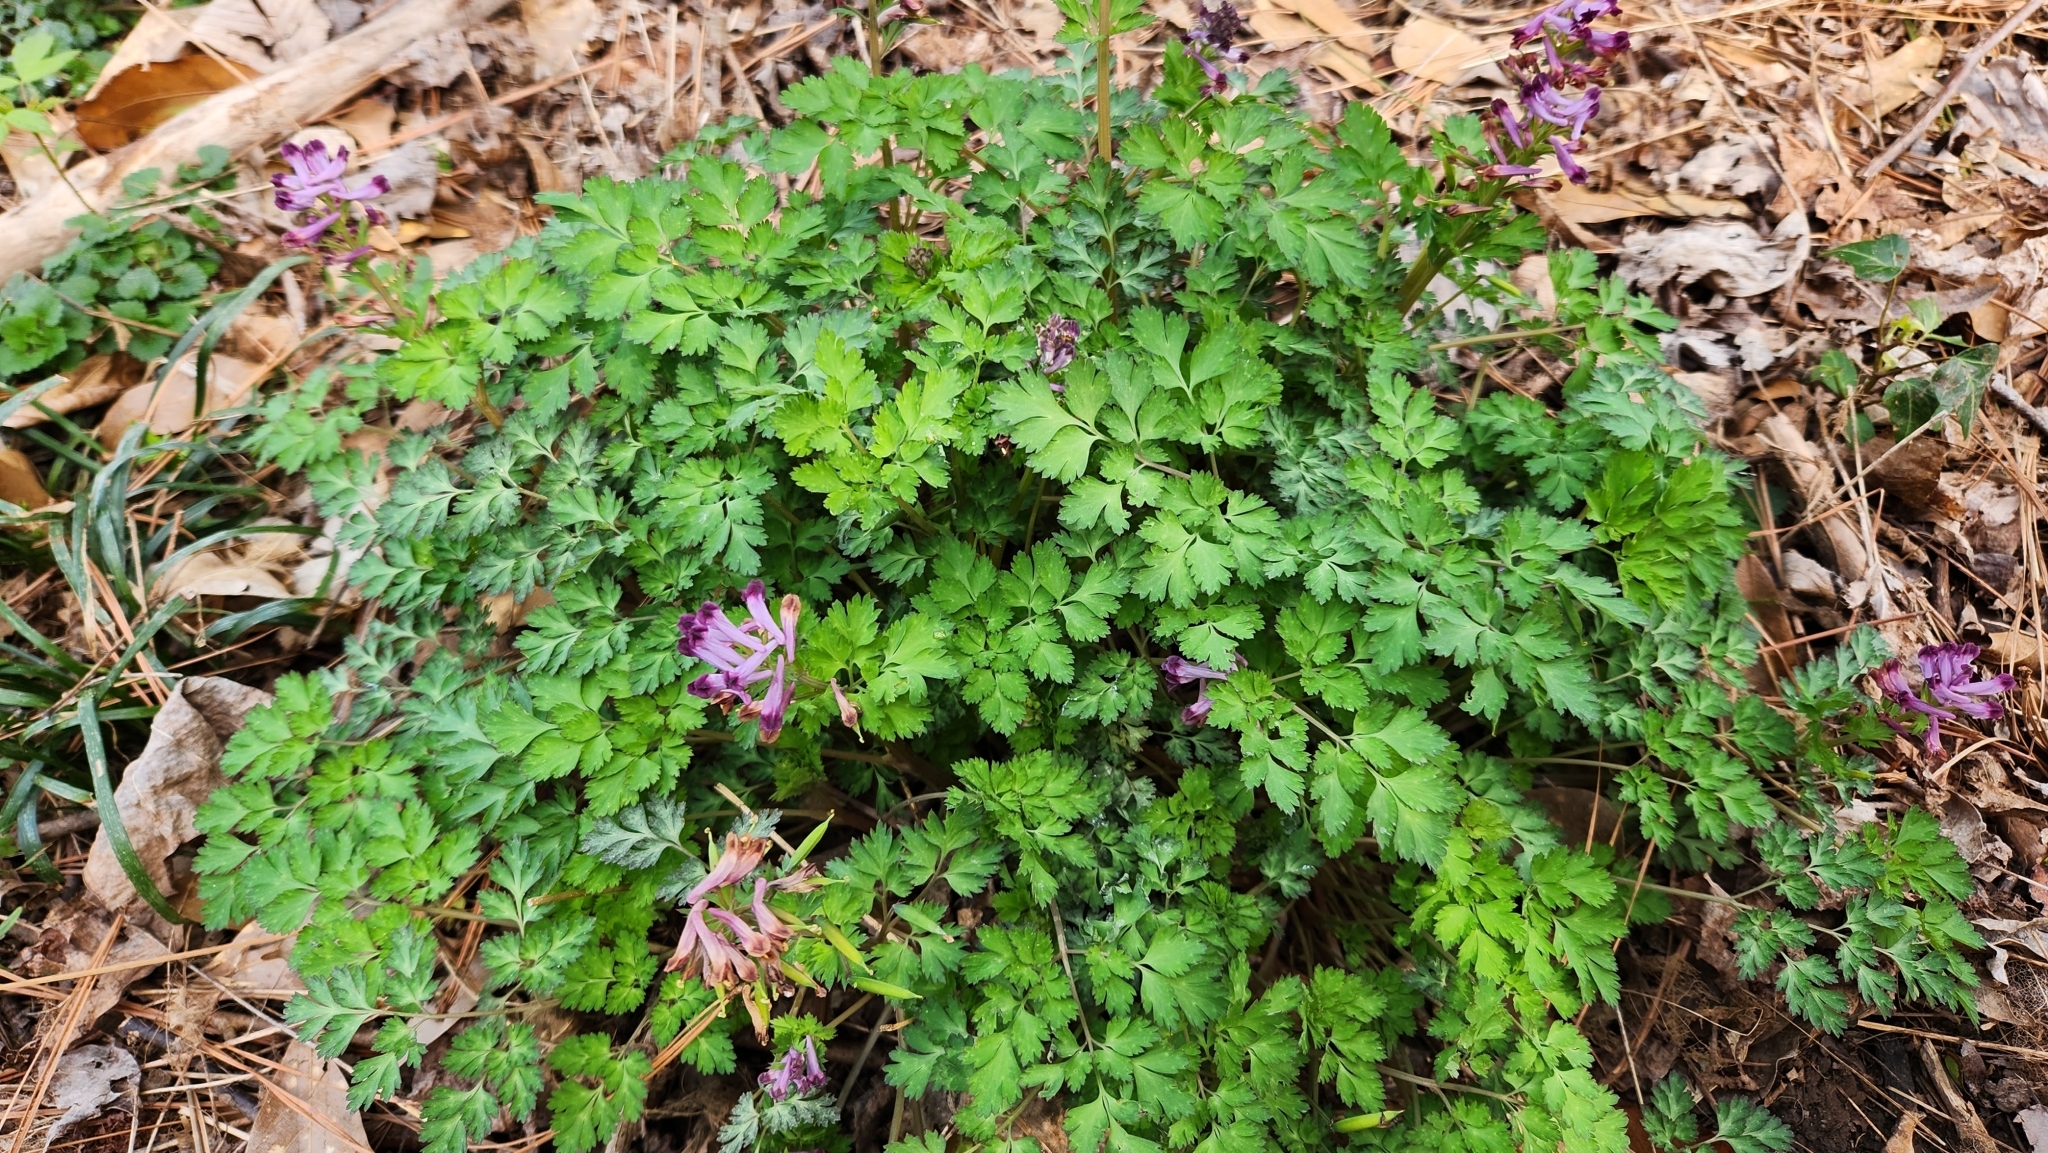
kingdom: Plantae
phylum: Tracheophyta
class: Magnoliopsida
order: Ranunculales
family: Papaveraceae
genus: Corydalis
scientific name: Corydalis incisa
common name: Incised fumewort
